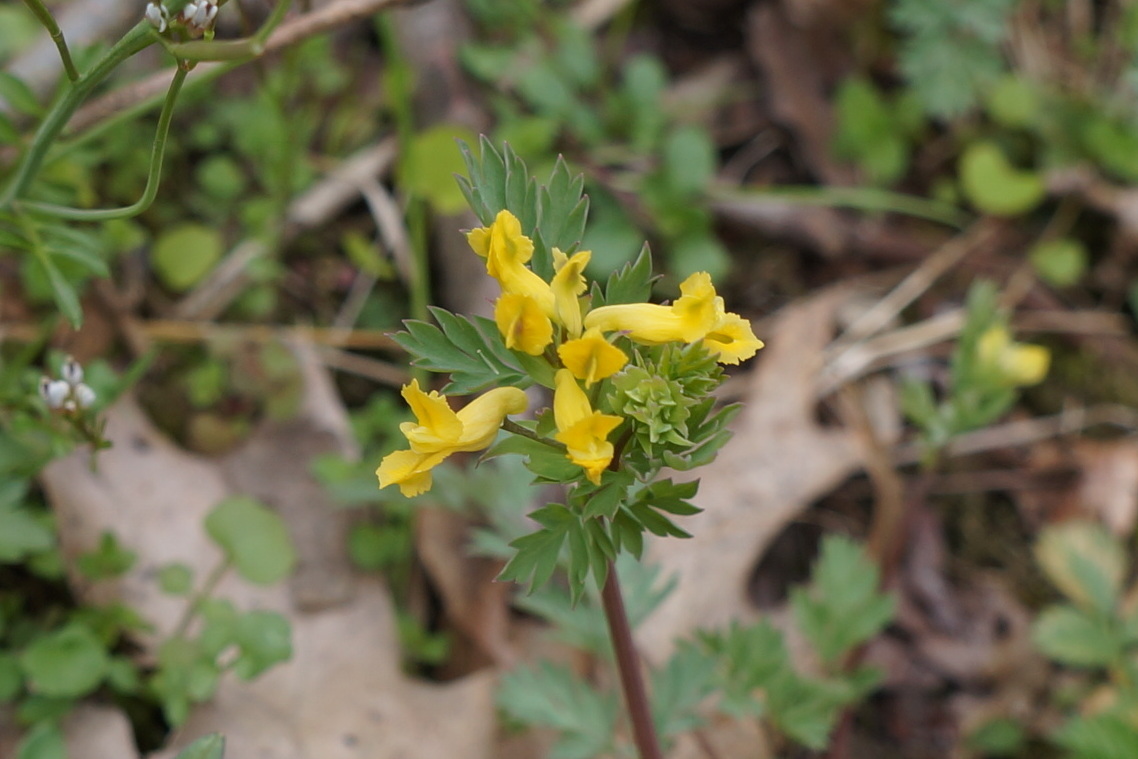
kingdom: Plantae
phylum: Tracheophyta
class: Magnoliopsida
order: Ranunculales
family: Papaveraceae
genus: Corydalis
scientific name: Corydalis flavula
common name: Yellow corydalis
